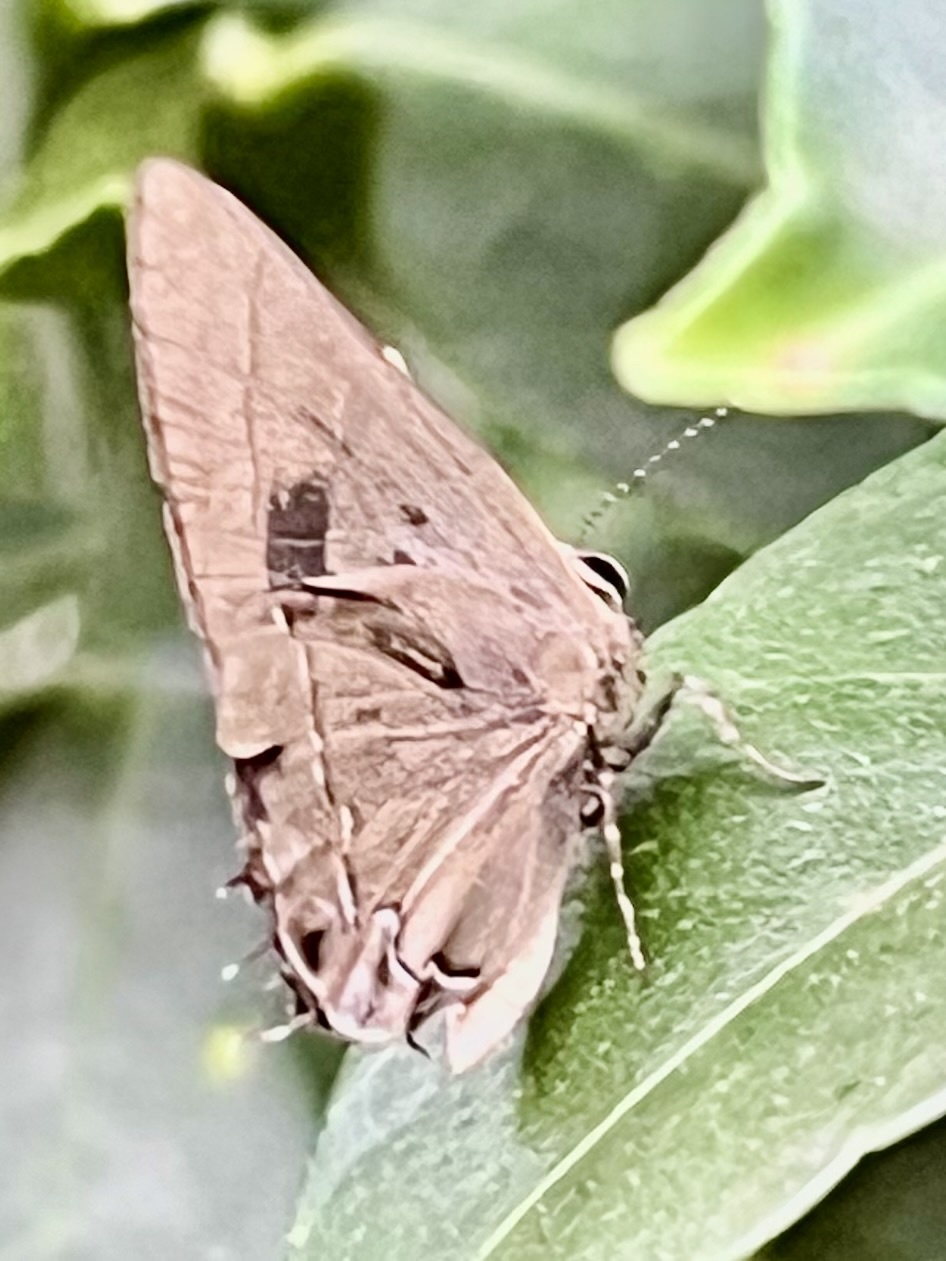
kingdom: Animalia
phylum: Arthropoda
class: Insecta
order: Lepidoptera
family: Lycaenidae
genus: Ziegleria
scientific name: Ziegleria hesperitis
